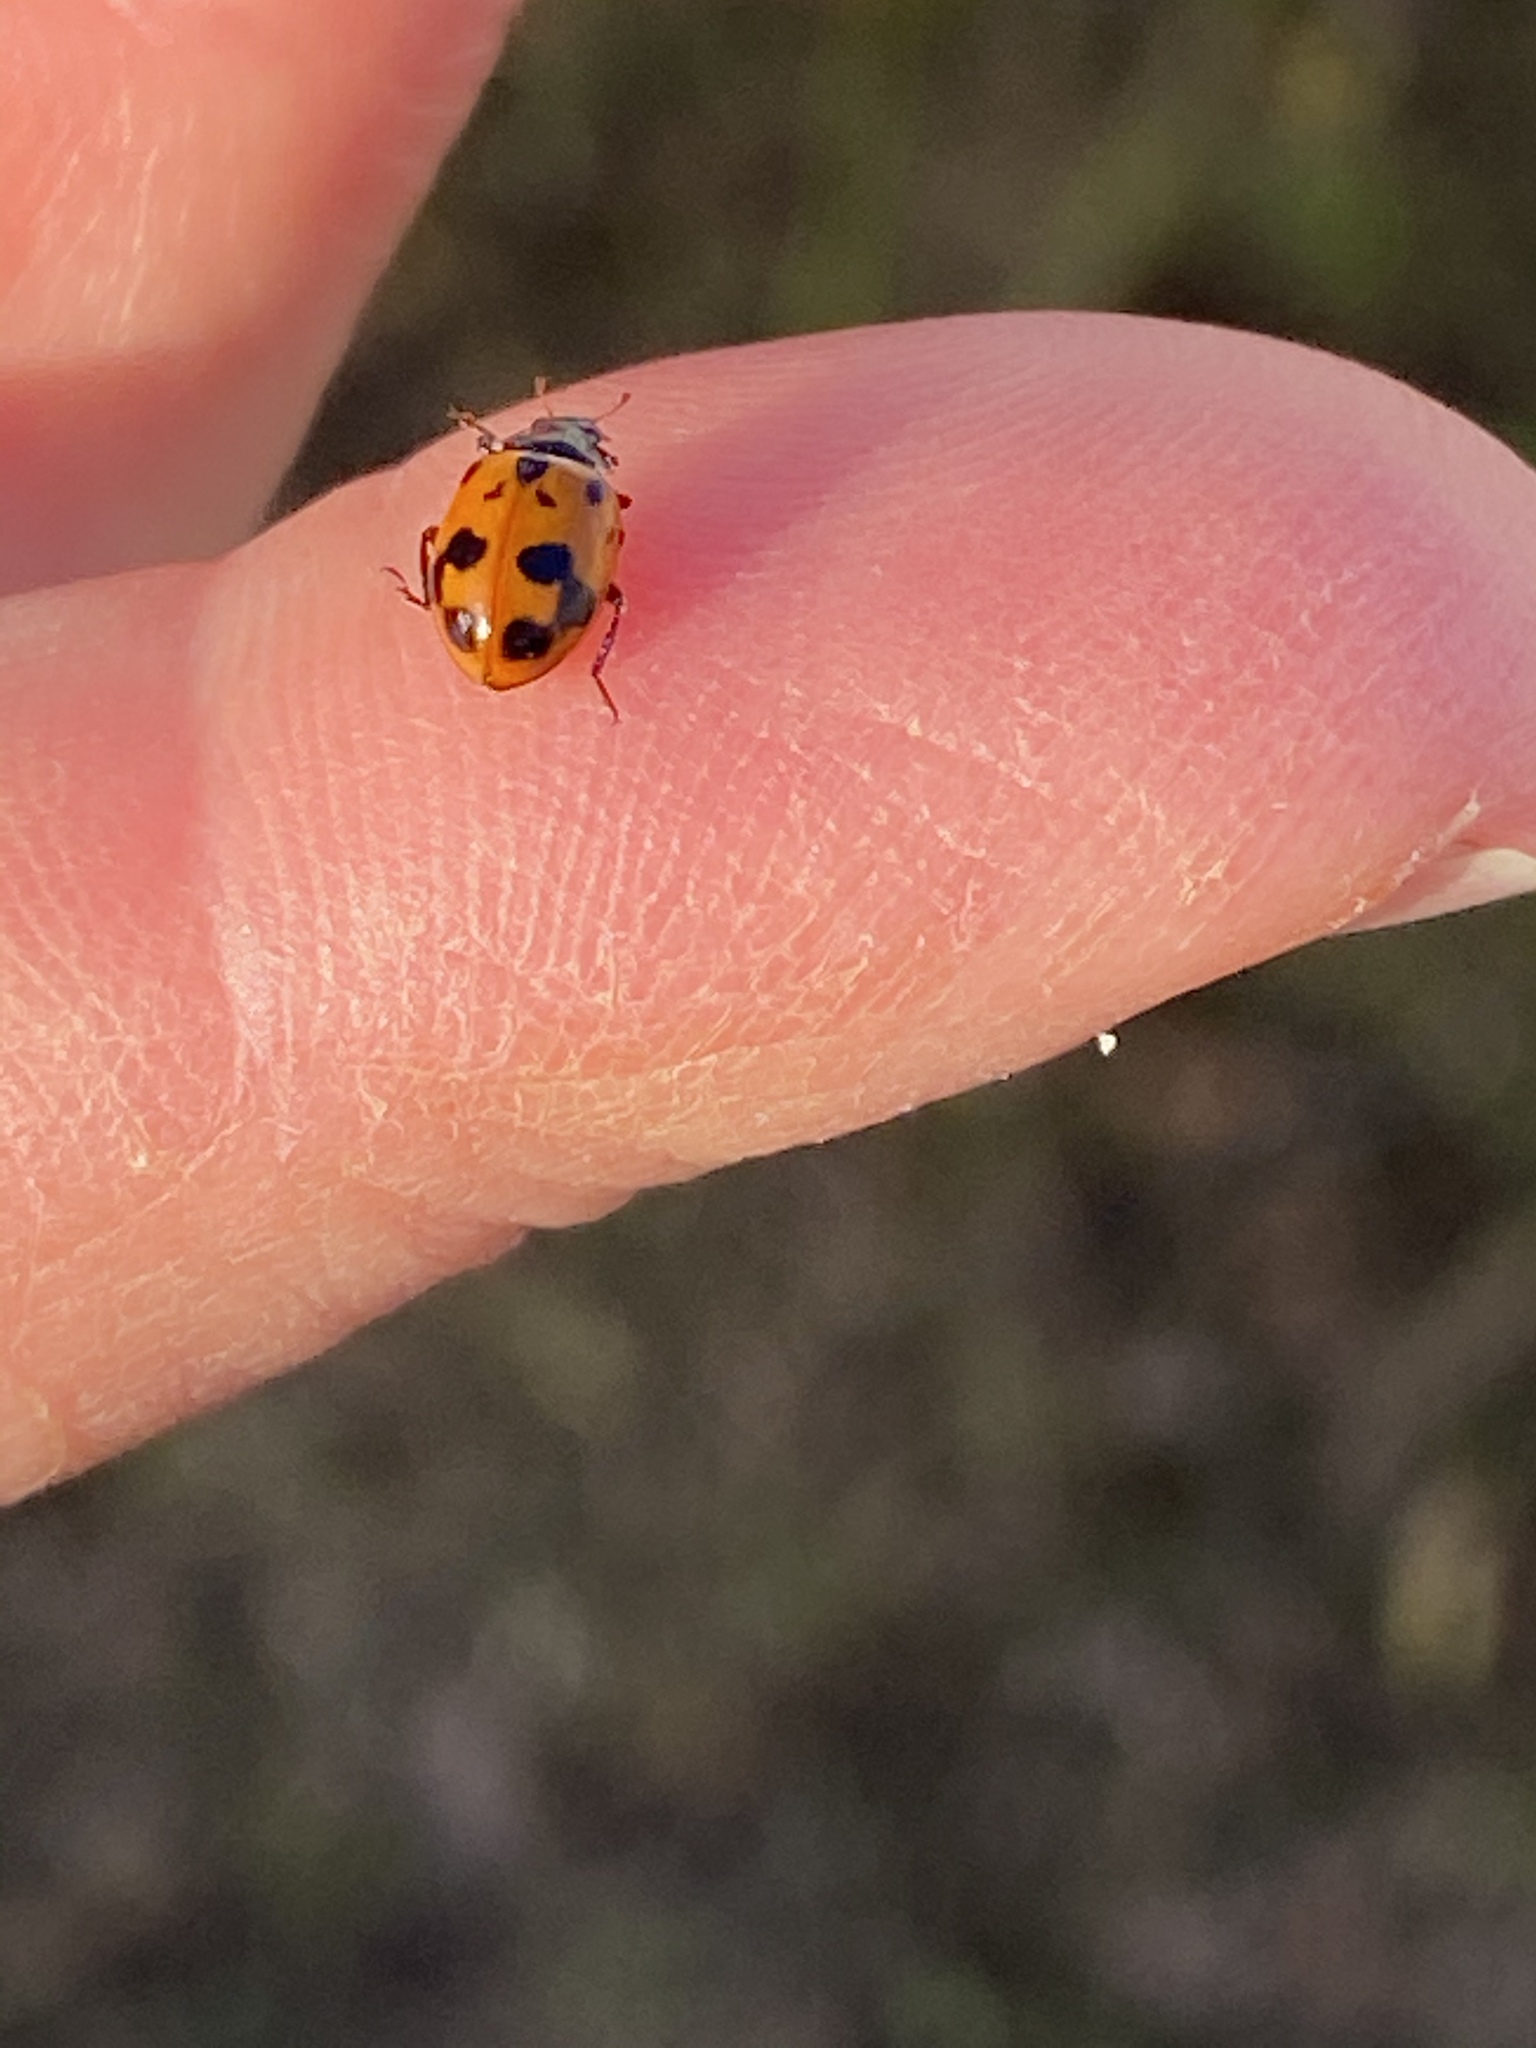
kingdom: Animalia
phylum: Arthropoda
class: Insecta
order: Coleoptera
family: Coccinellidae
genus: Hippodamia
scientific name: Hippodamia variegata
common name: Ladybird beetle
